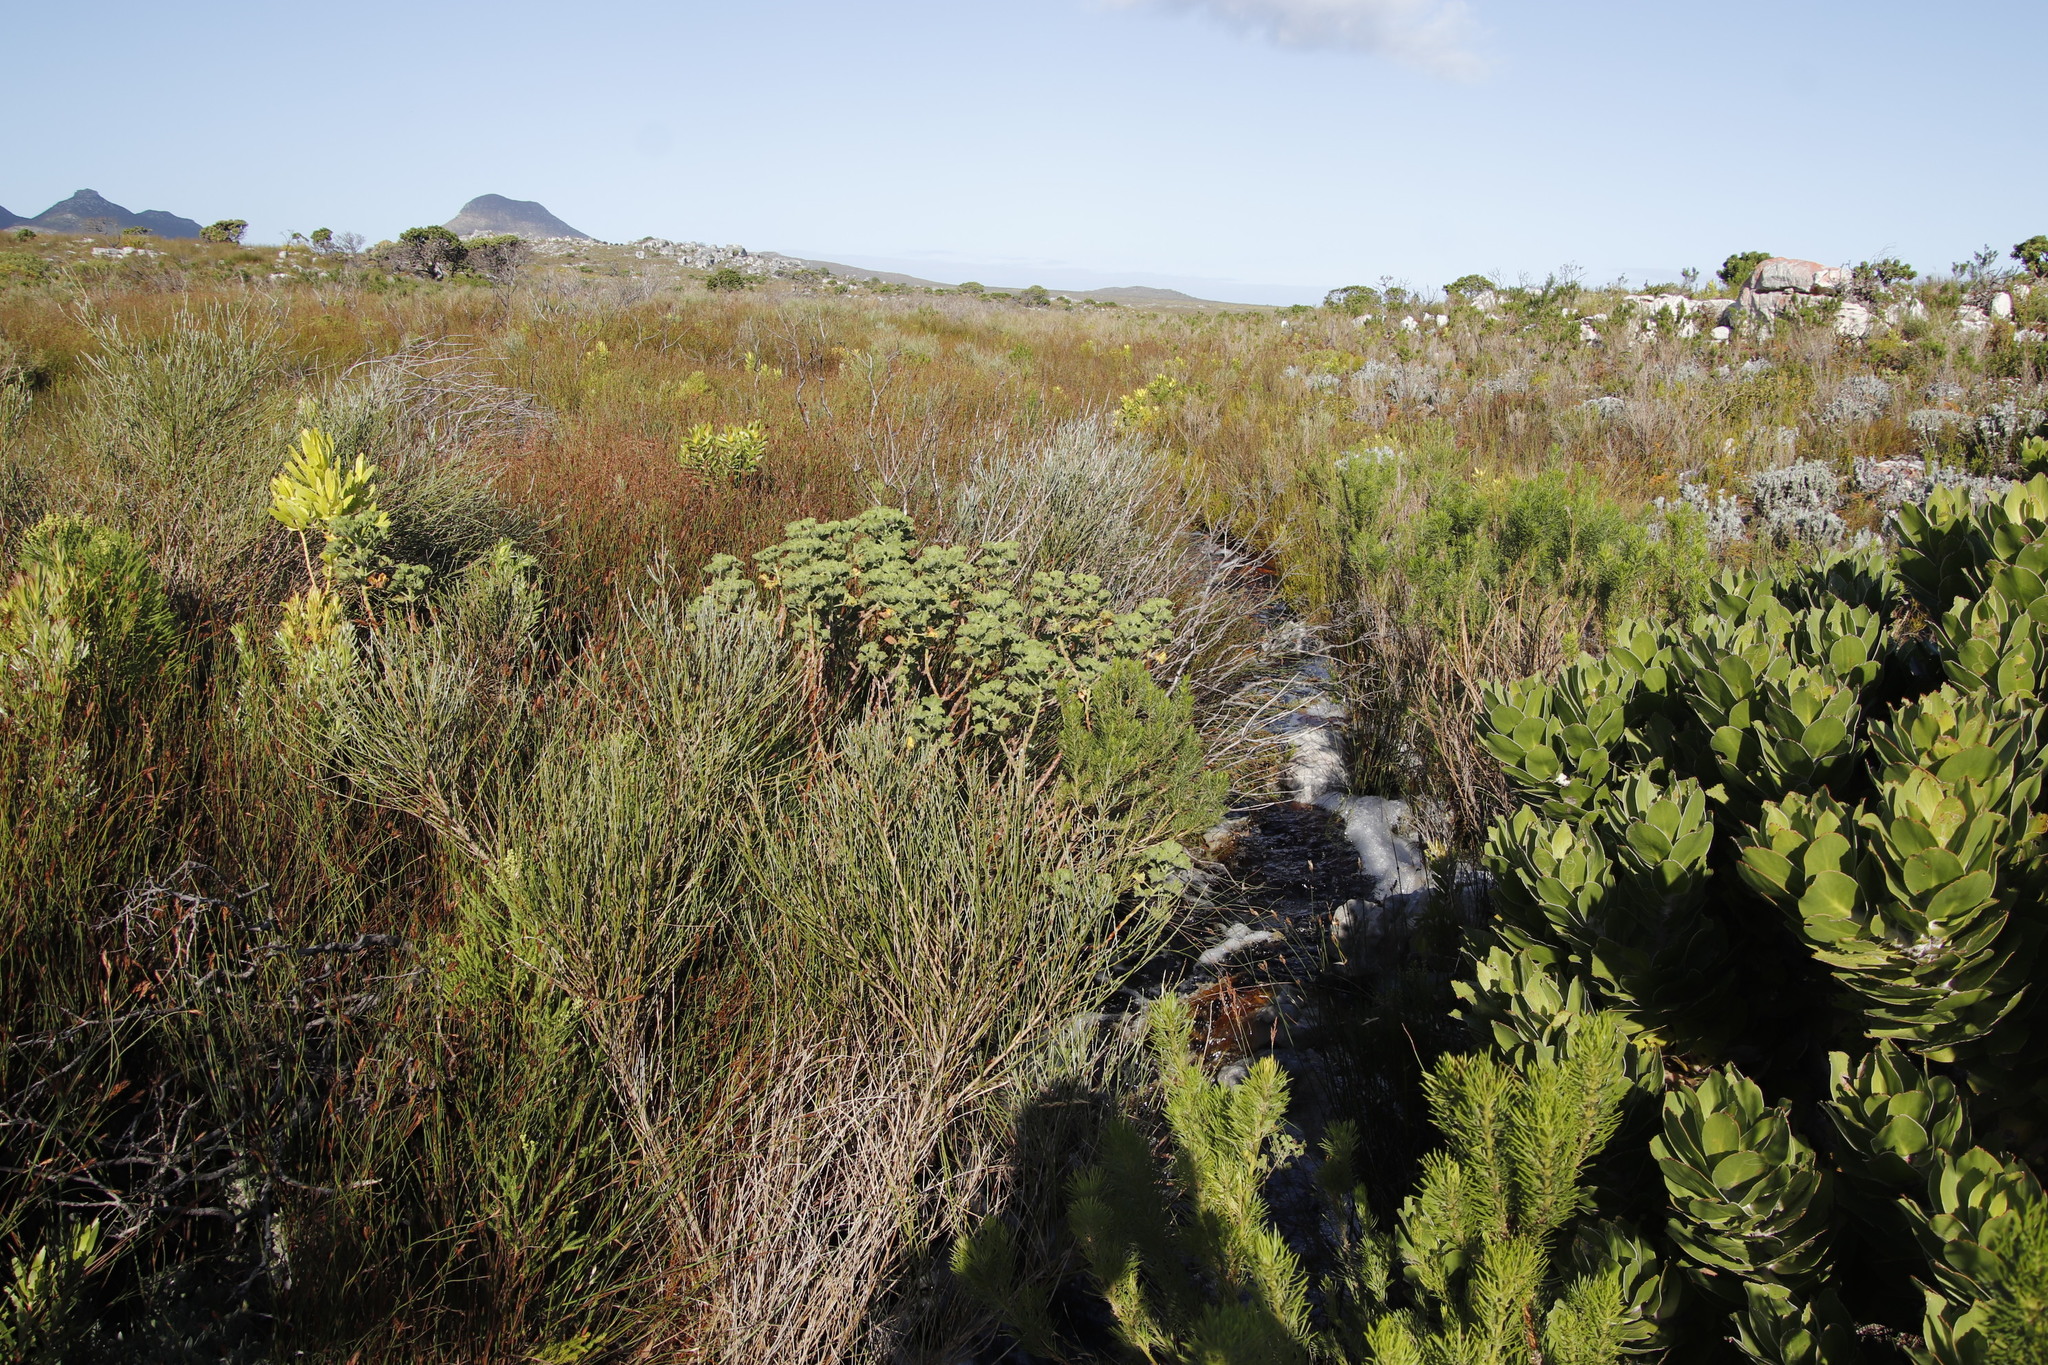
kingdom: Plantae
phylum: Tracheophyta
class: Magnoliopsida
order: Fabales
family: Fabaceae
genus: Psoralea
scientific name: Psoralea aphylla
